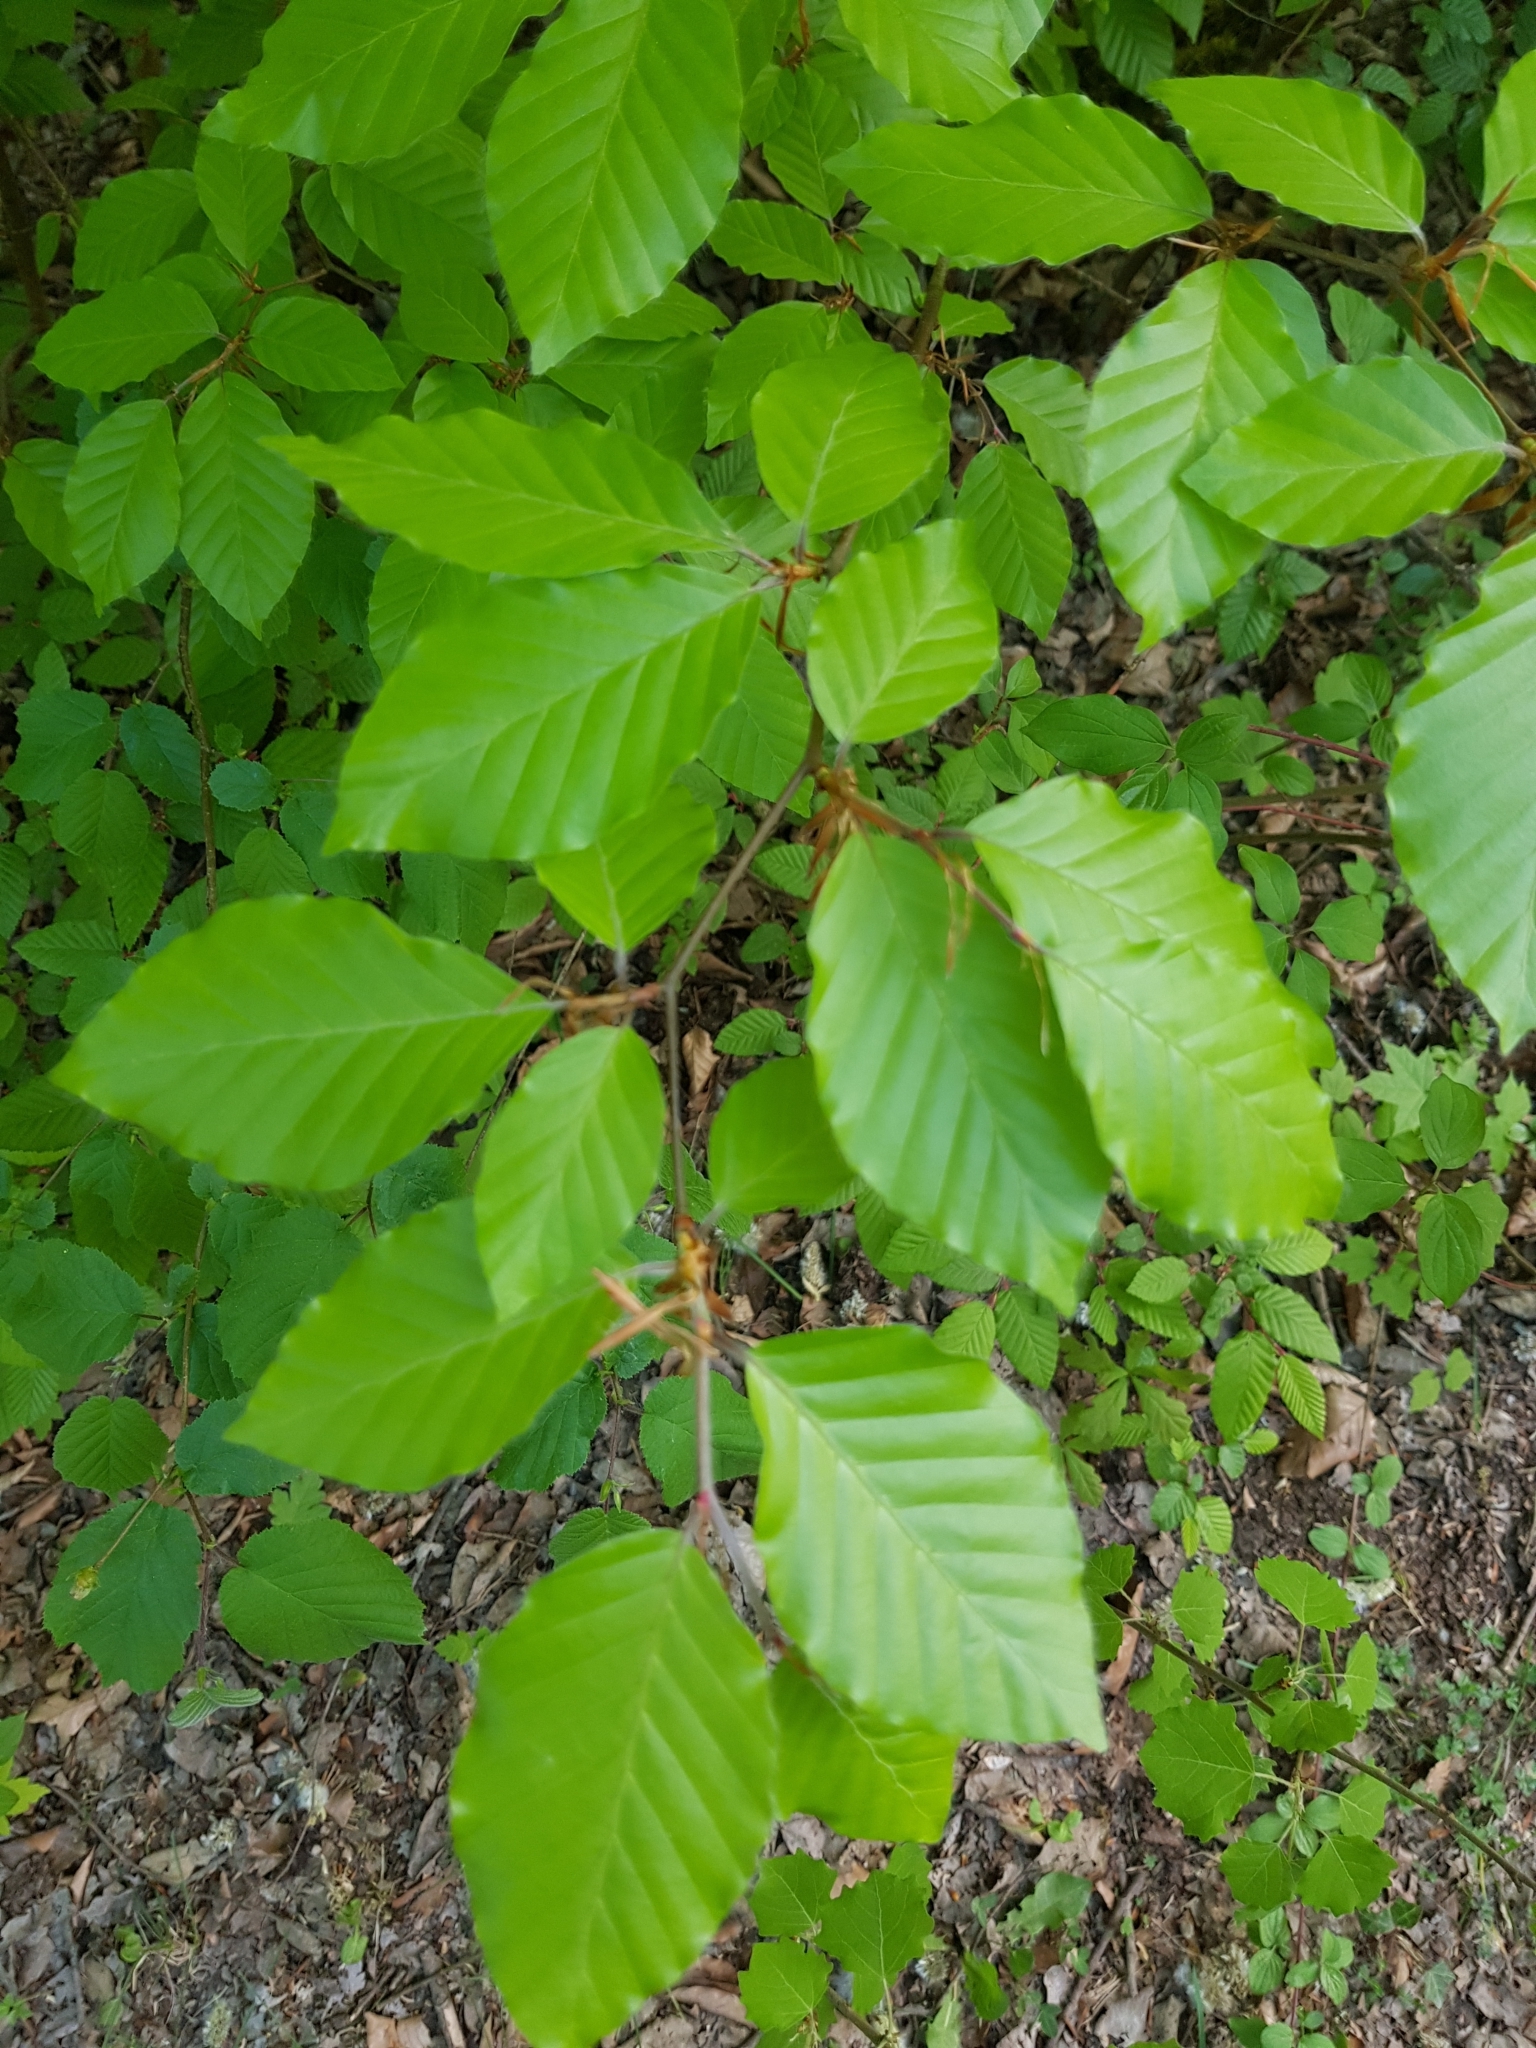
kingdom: Plantae
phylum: Tracheophyta
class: Magnoliopsida
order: Fagales
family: Fagaceae
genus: Fagus
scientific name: Fagus sylvatica
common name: Beech
